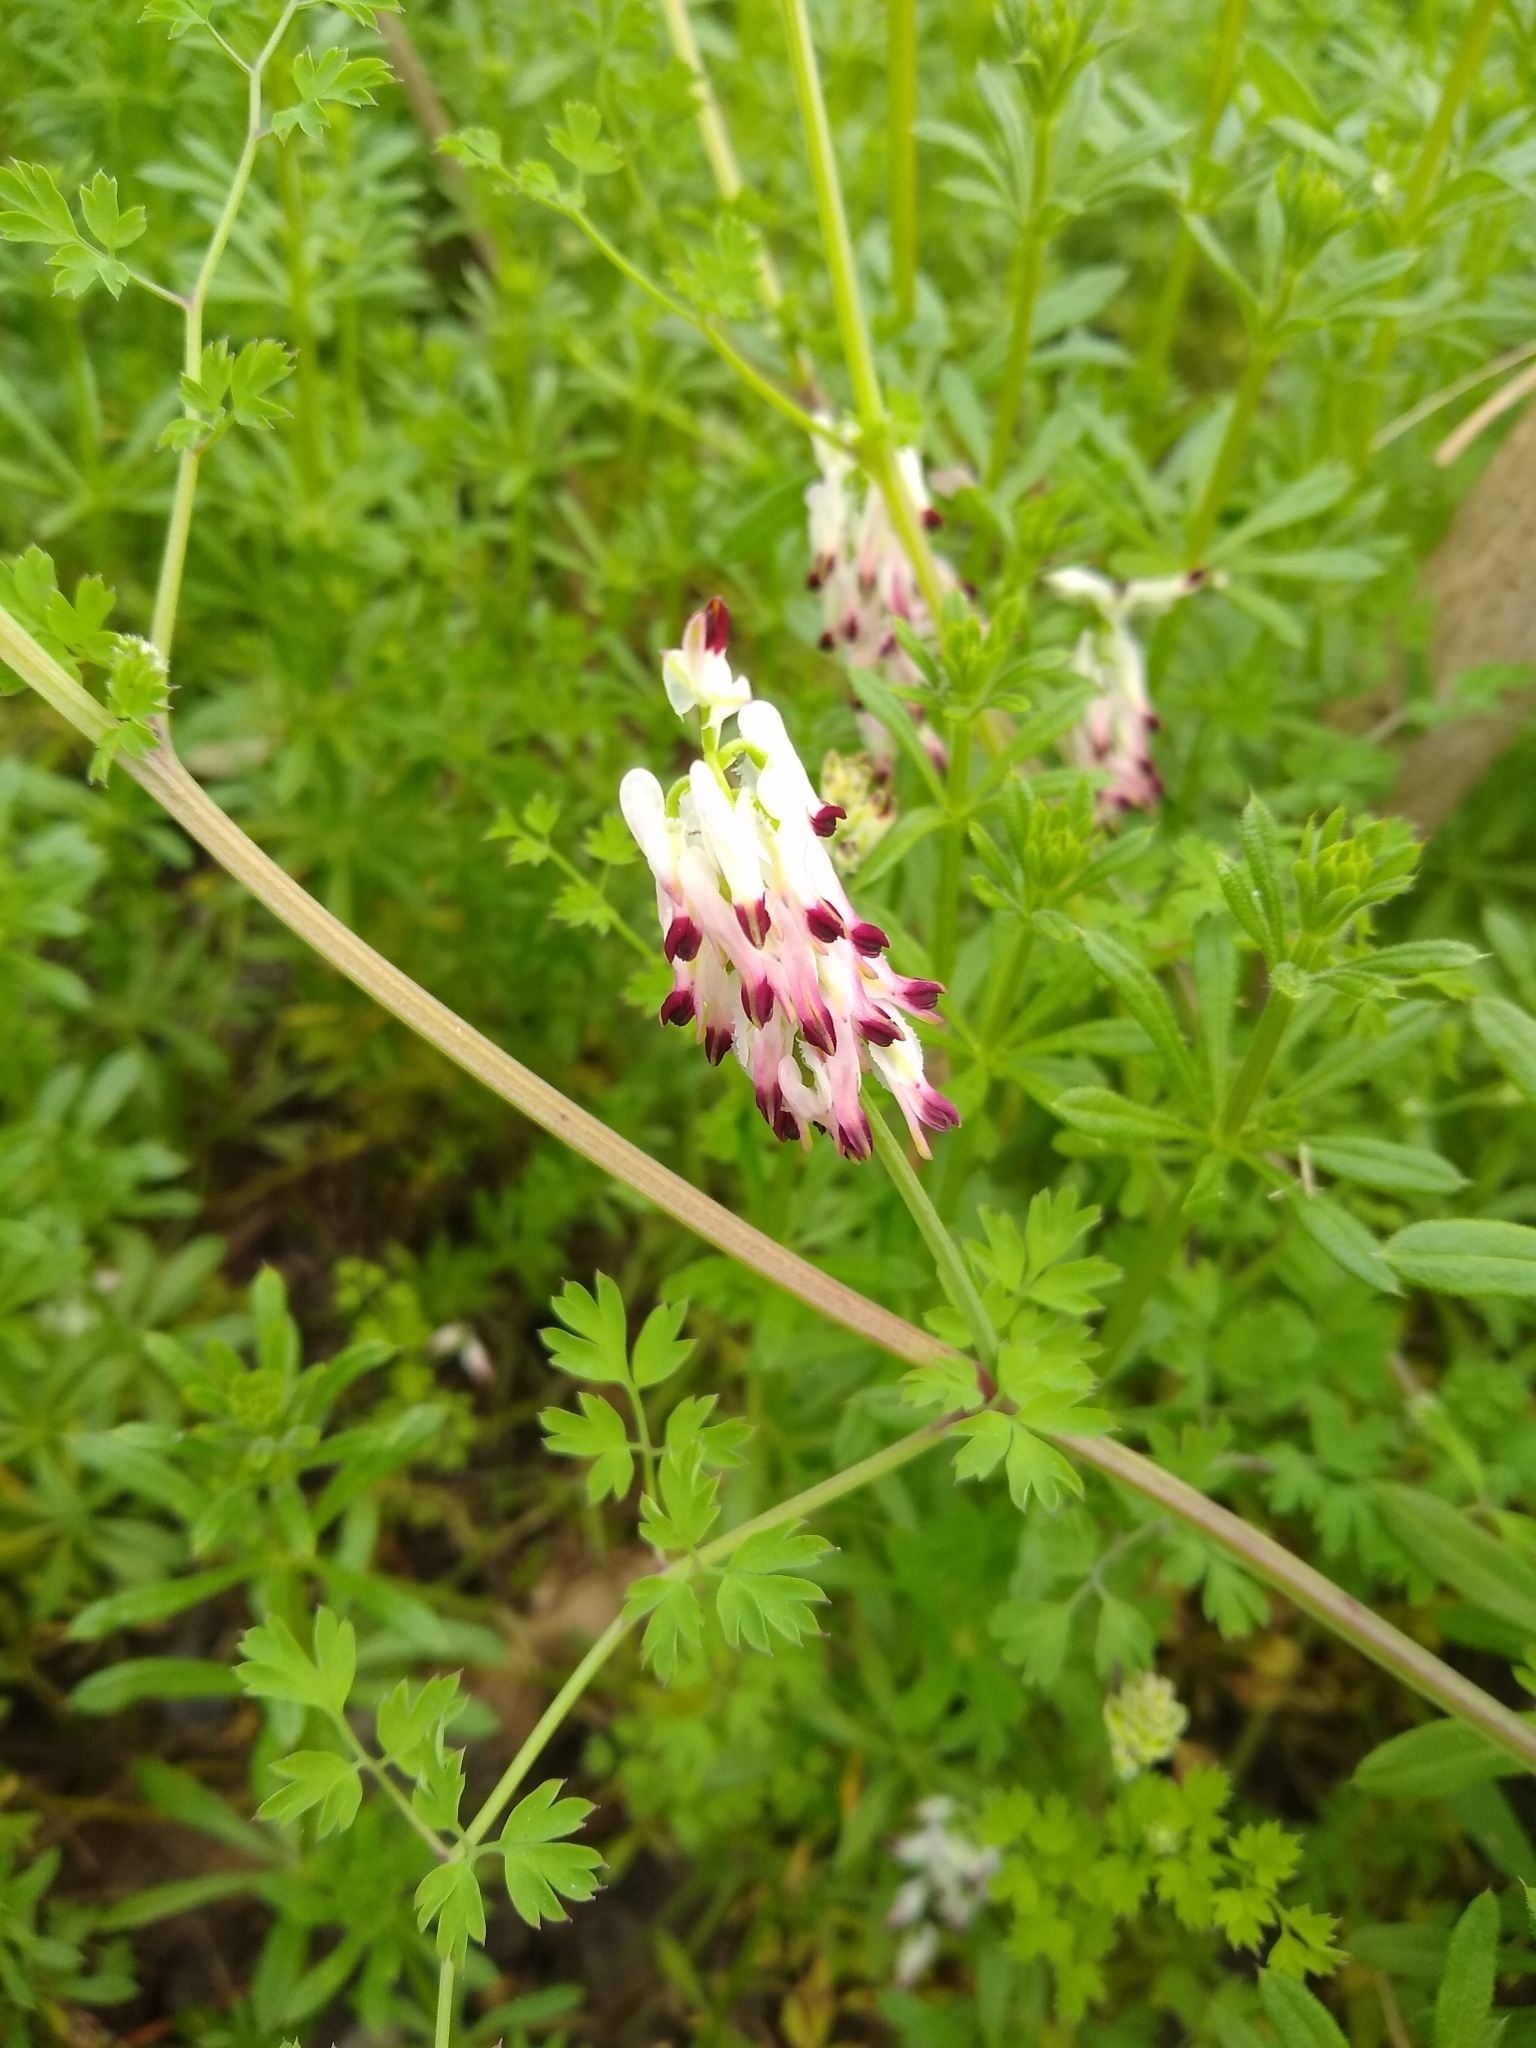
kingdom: Plantae
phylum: Tracheophyta
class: Magnoliopsida
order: Ranunculales
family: Papaveraceae
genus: Fumaria
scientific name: Fumaria capreolata
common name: White ramping-fumitory
